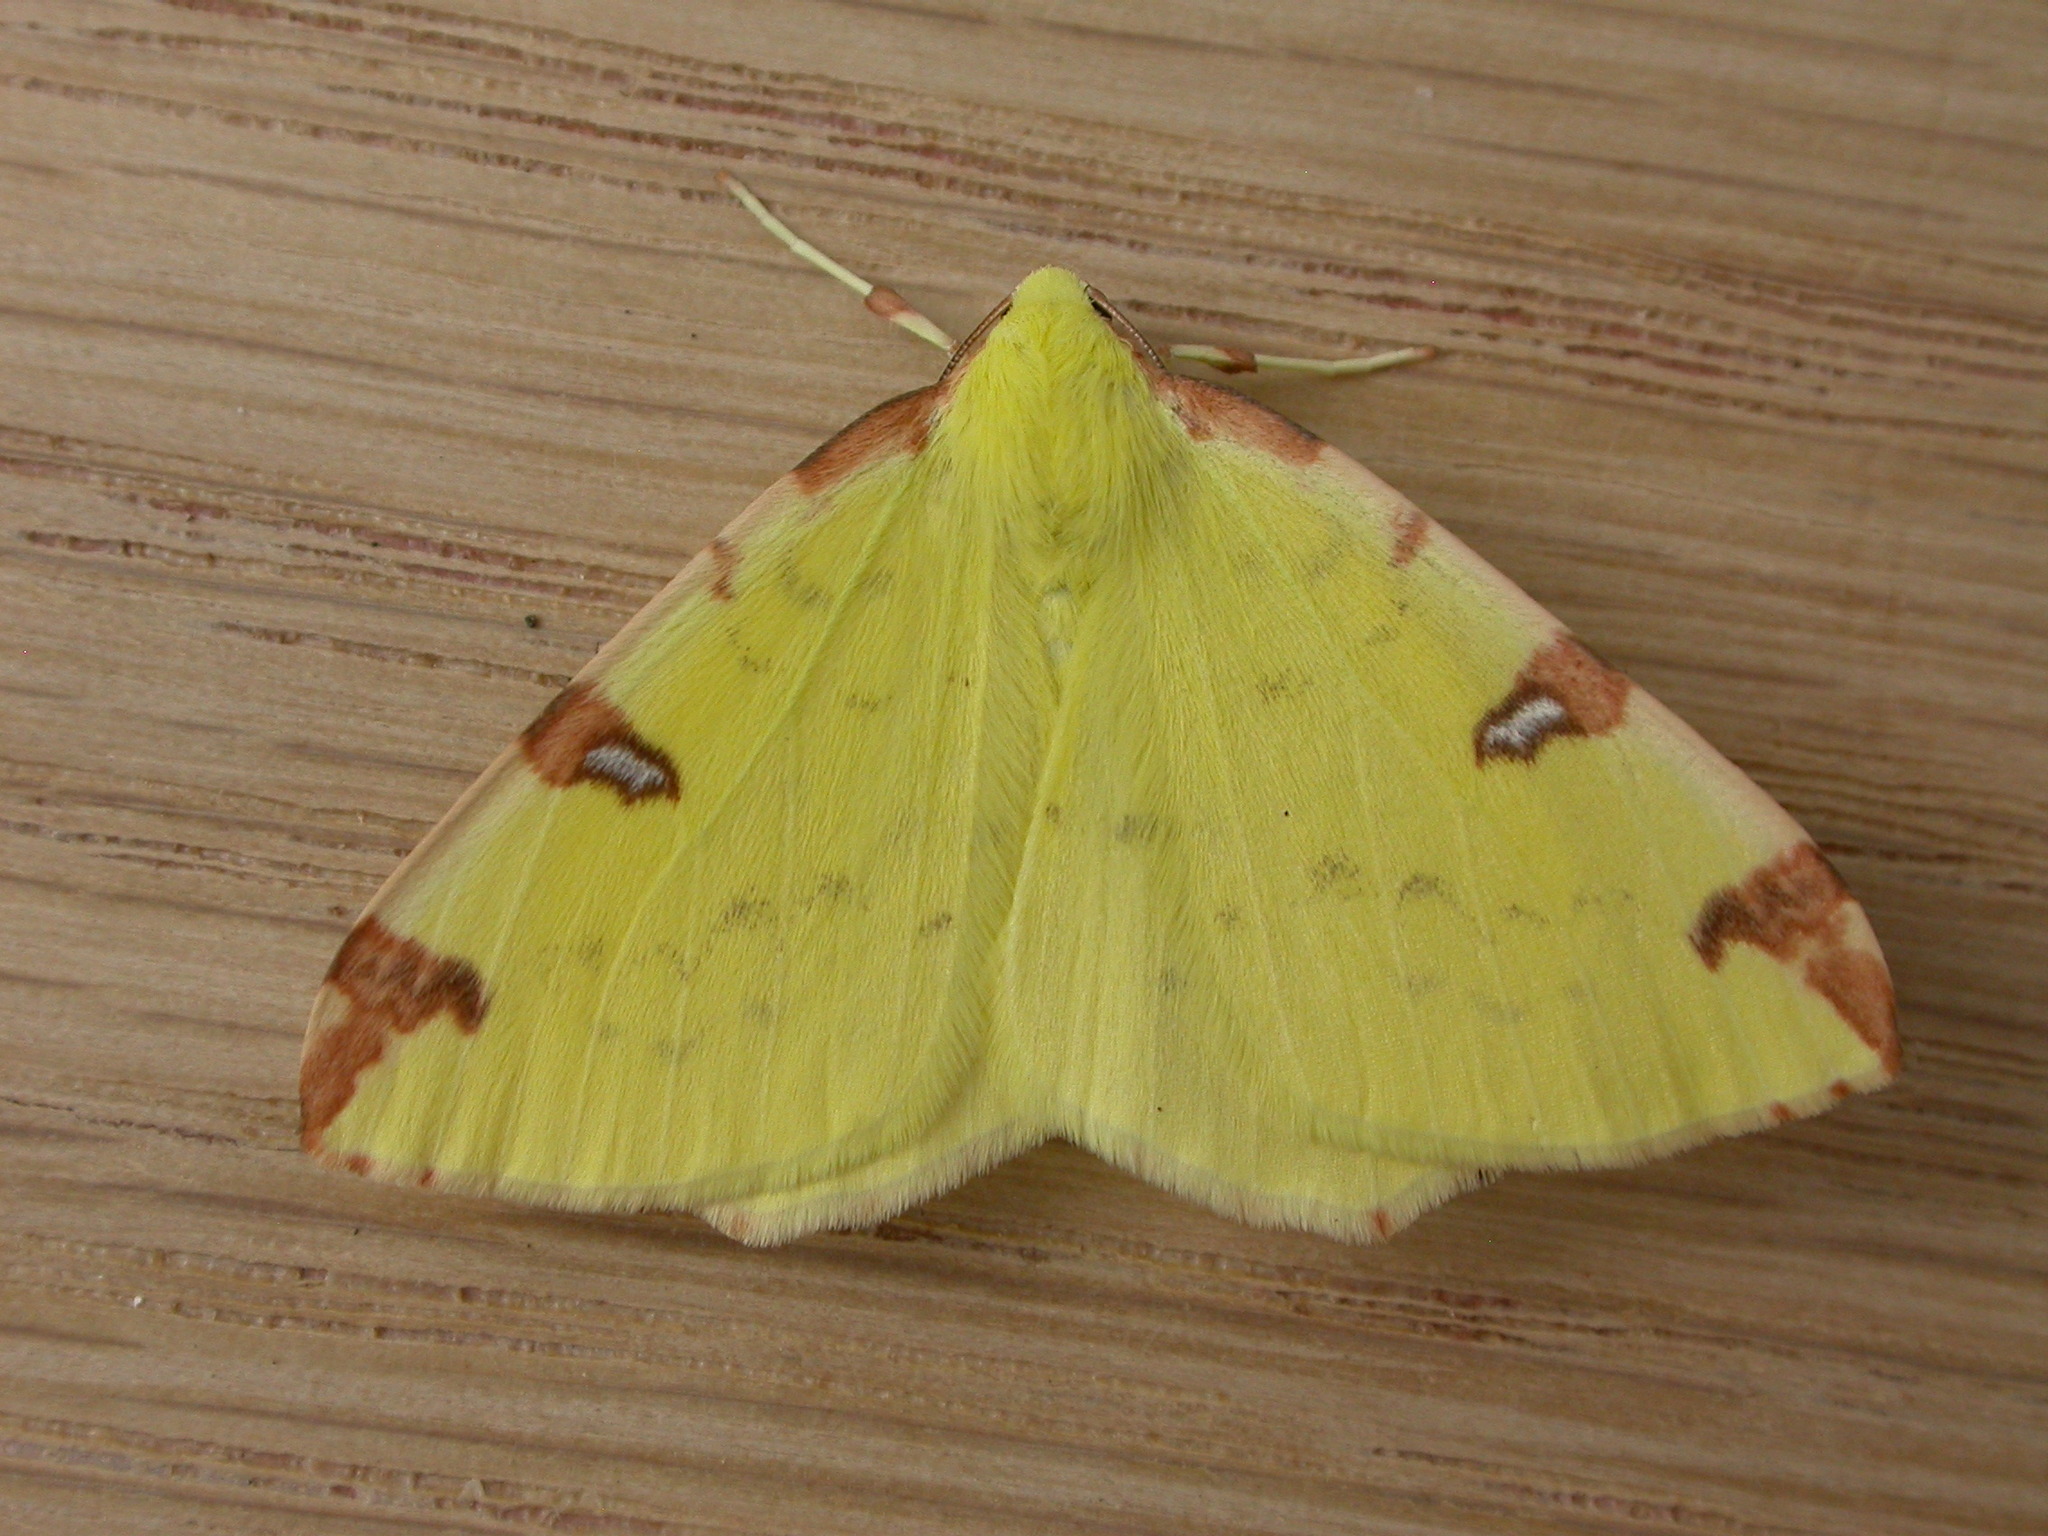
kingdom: Animalia
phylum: Arthropoda
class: Insecta
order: Lepidoptera
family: Geometridae
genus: Opisthograptis
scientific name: Opisthograptis luteolata
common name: Brimstone moth
